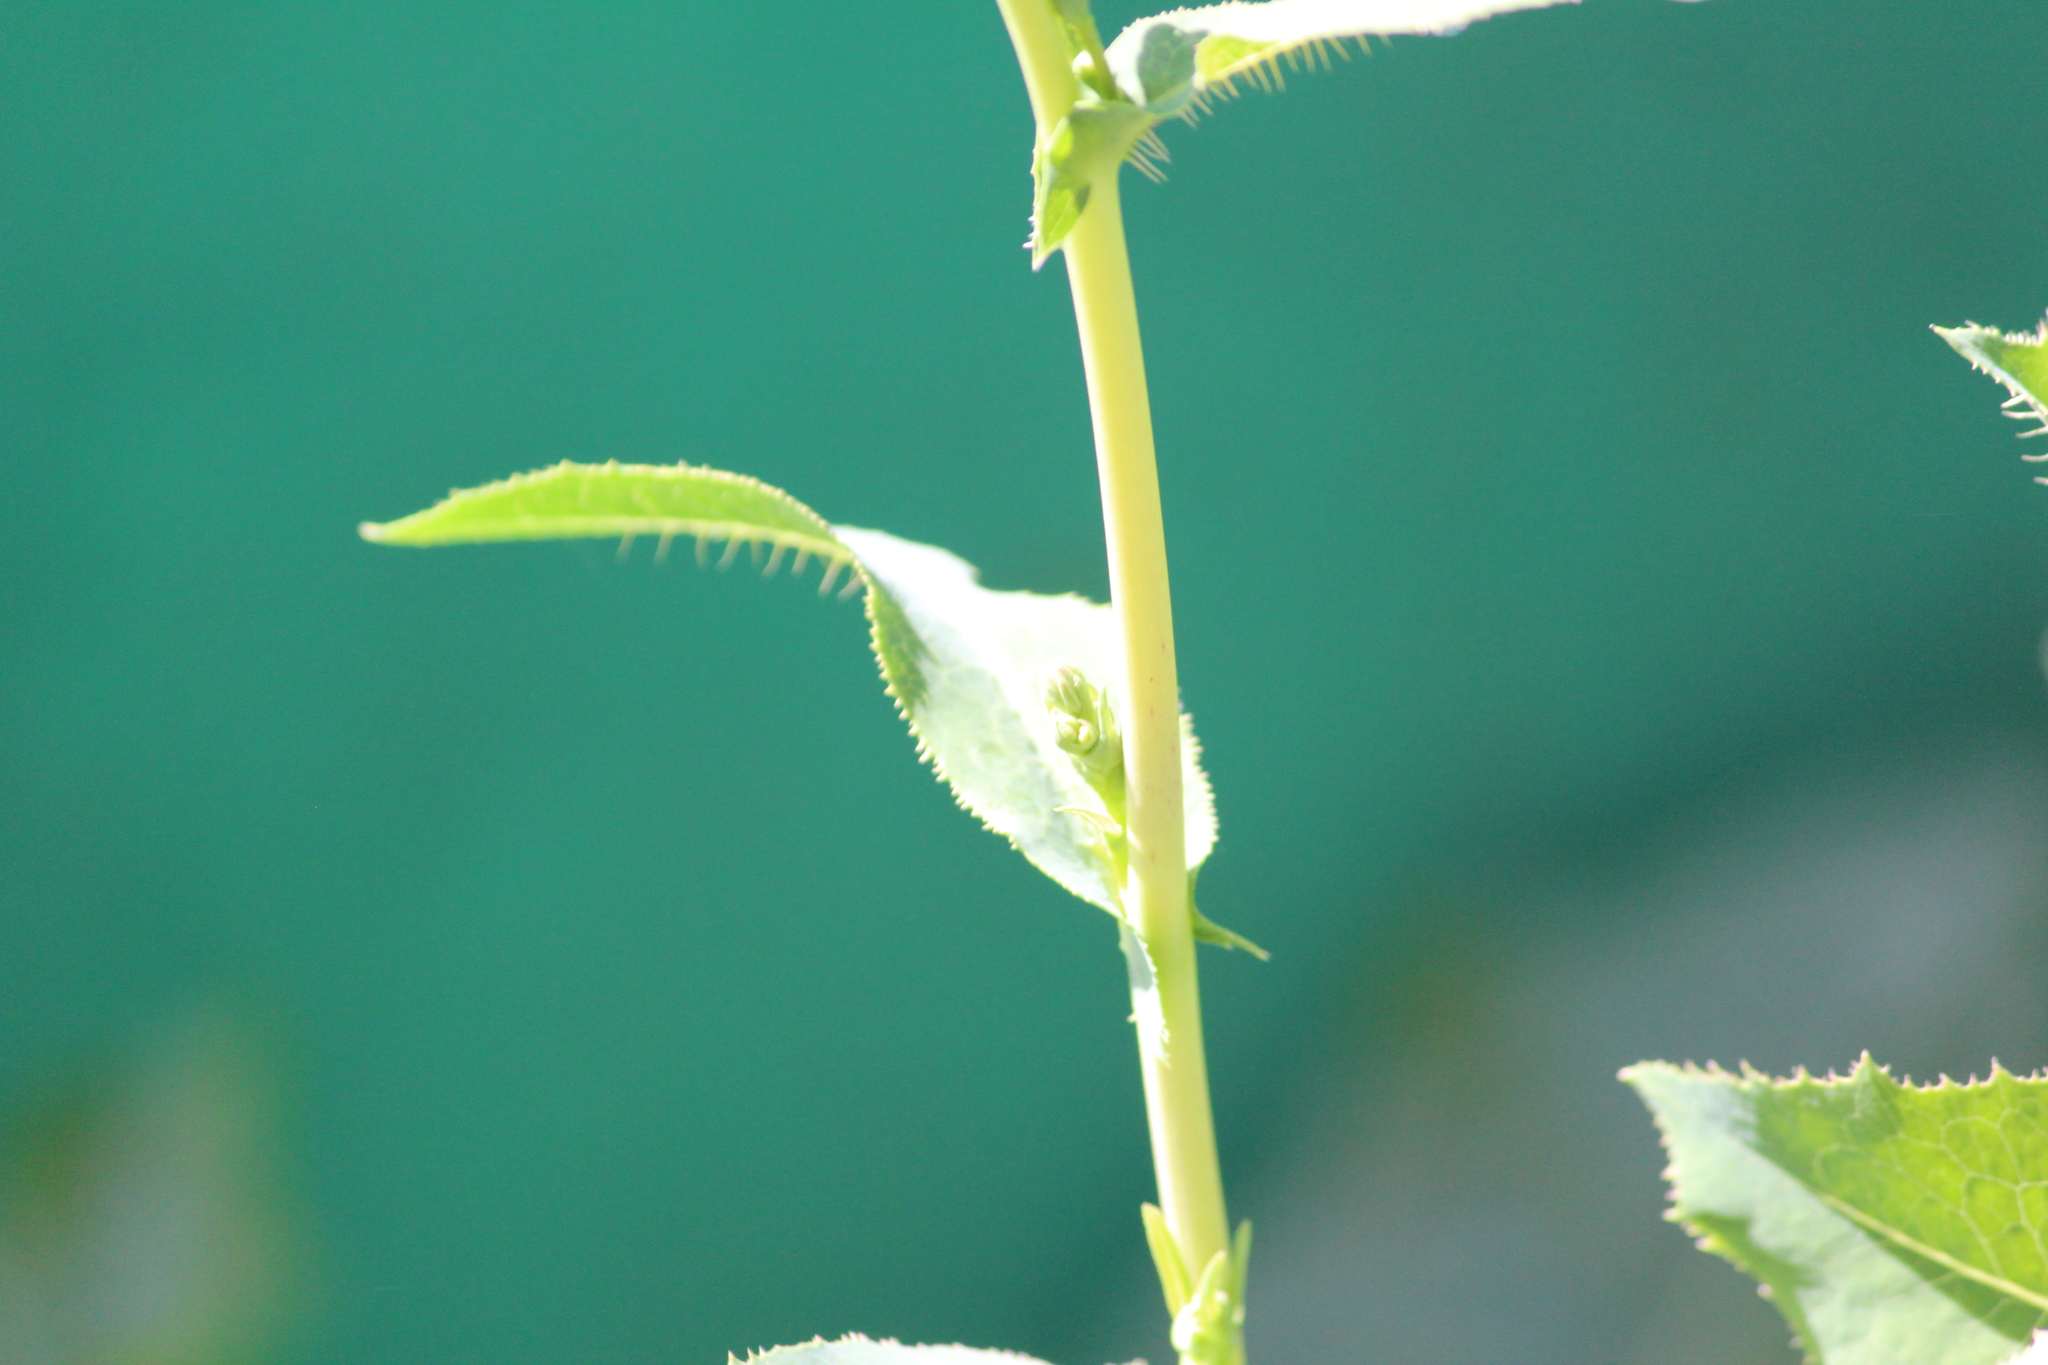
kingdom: Plantae
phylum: Tracheophyta
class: Magnoliopsida
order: Asterales
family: Asteraceae
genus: Lactuca
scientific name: Lactuca serriola
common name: Prickly lettuce
